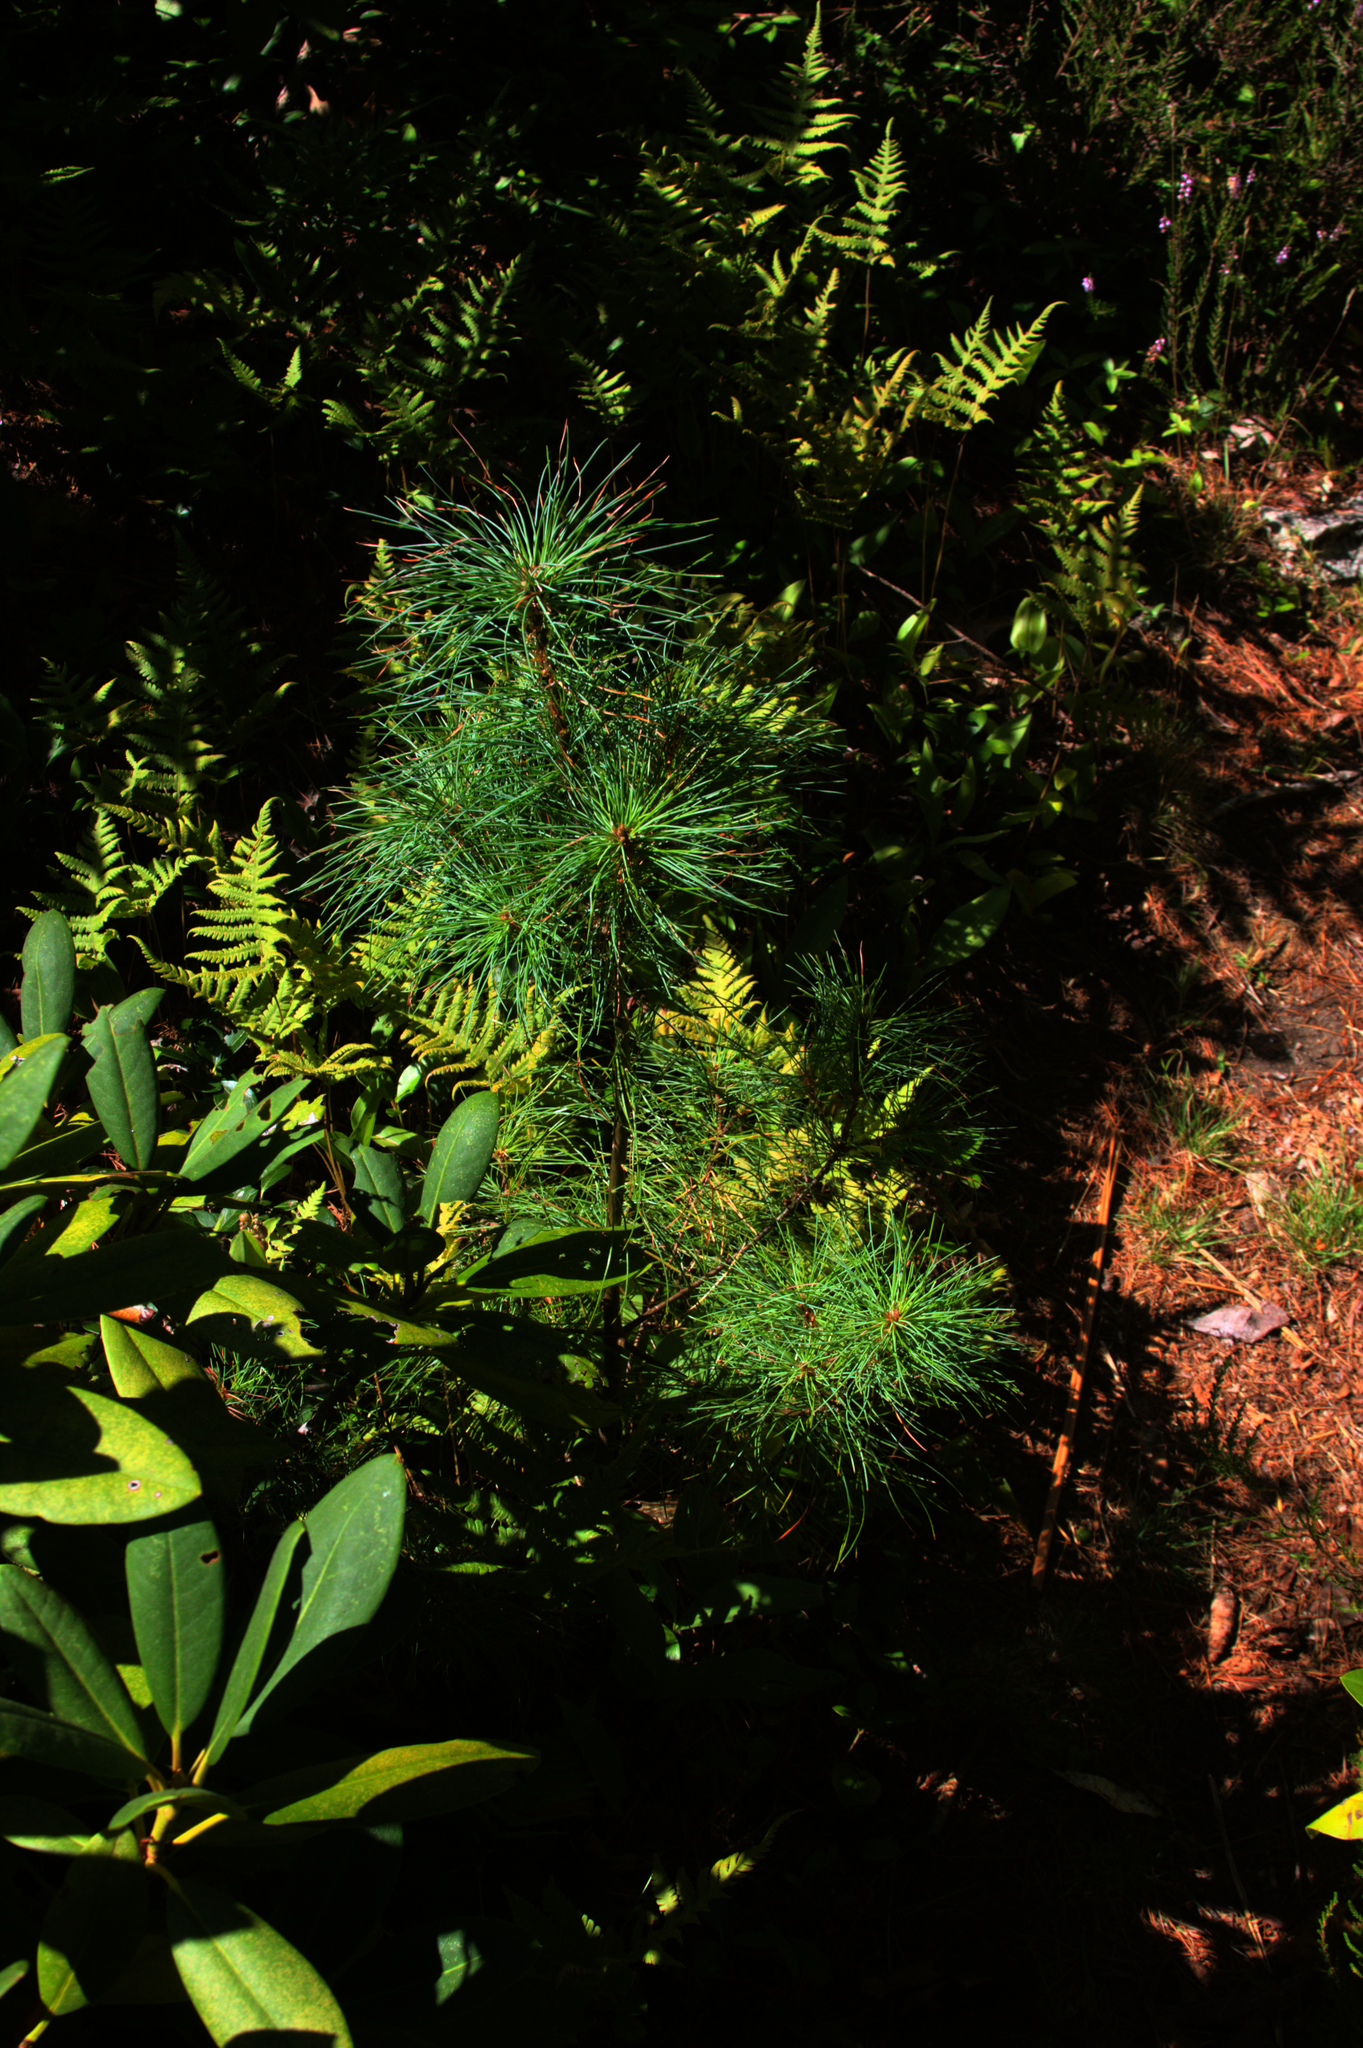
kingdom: Plantae
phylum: Tracheophyta
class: Pinopsida
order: Pinales
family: Pinaceae
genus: Pinus
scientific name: Pinus strobus
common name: Weymouth pine
